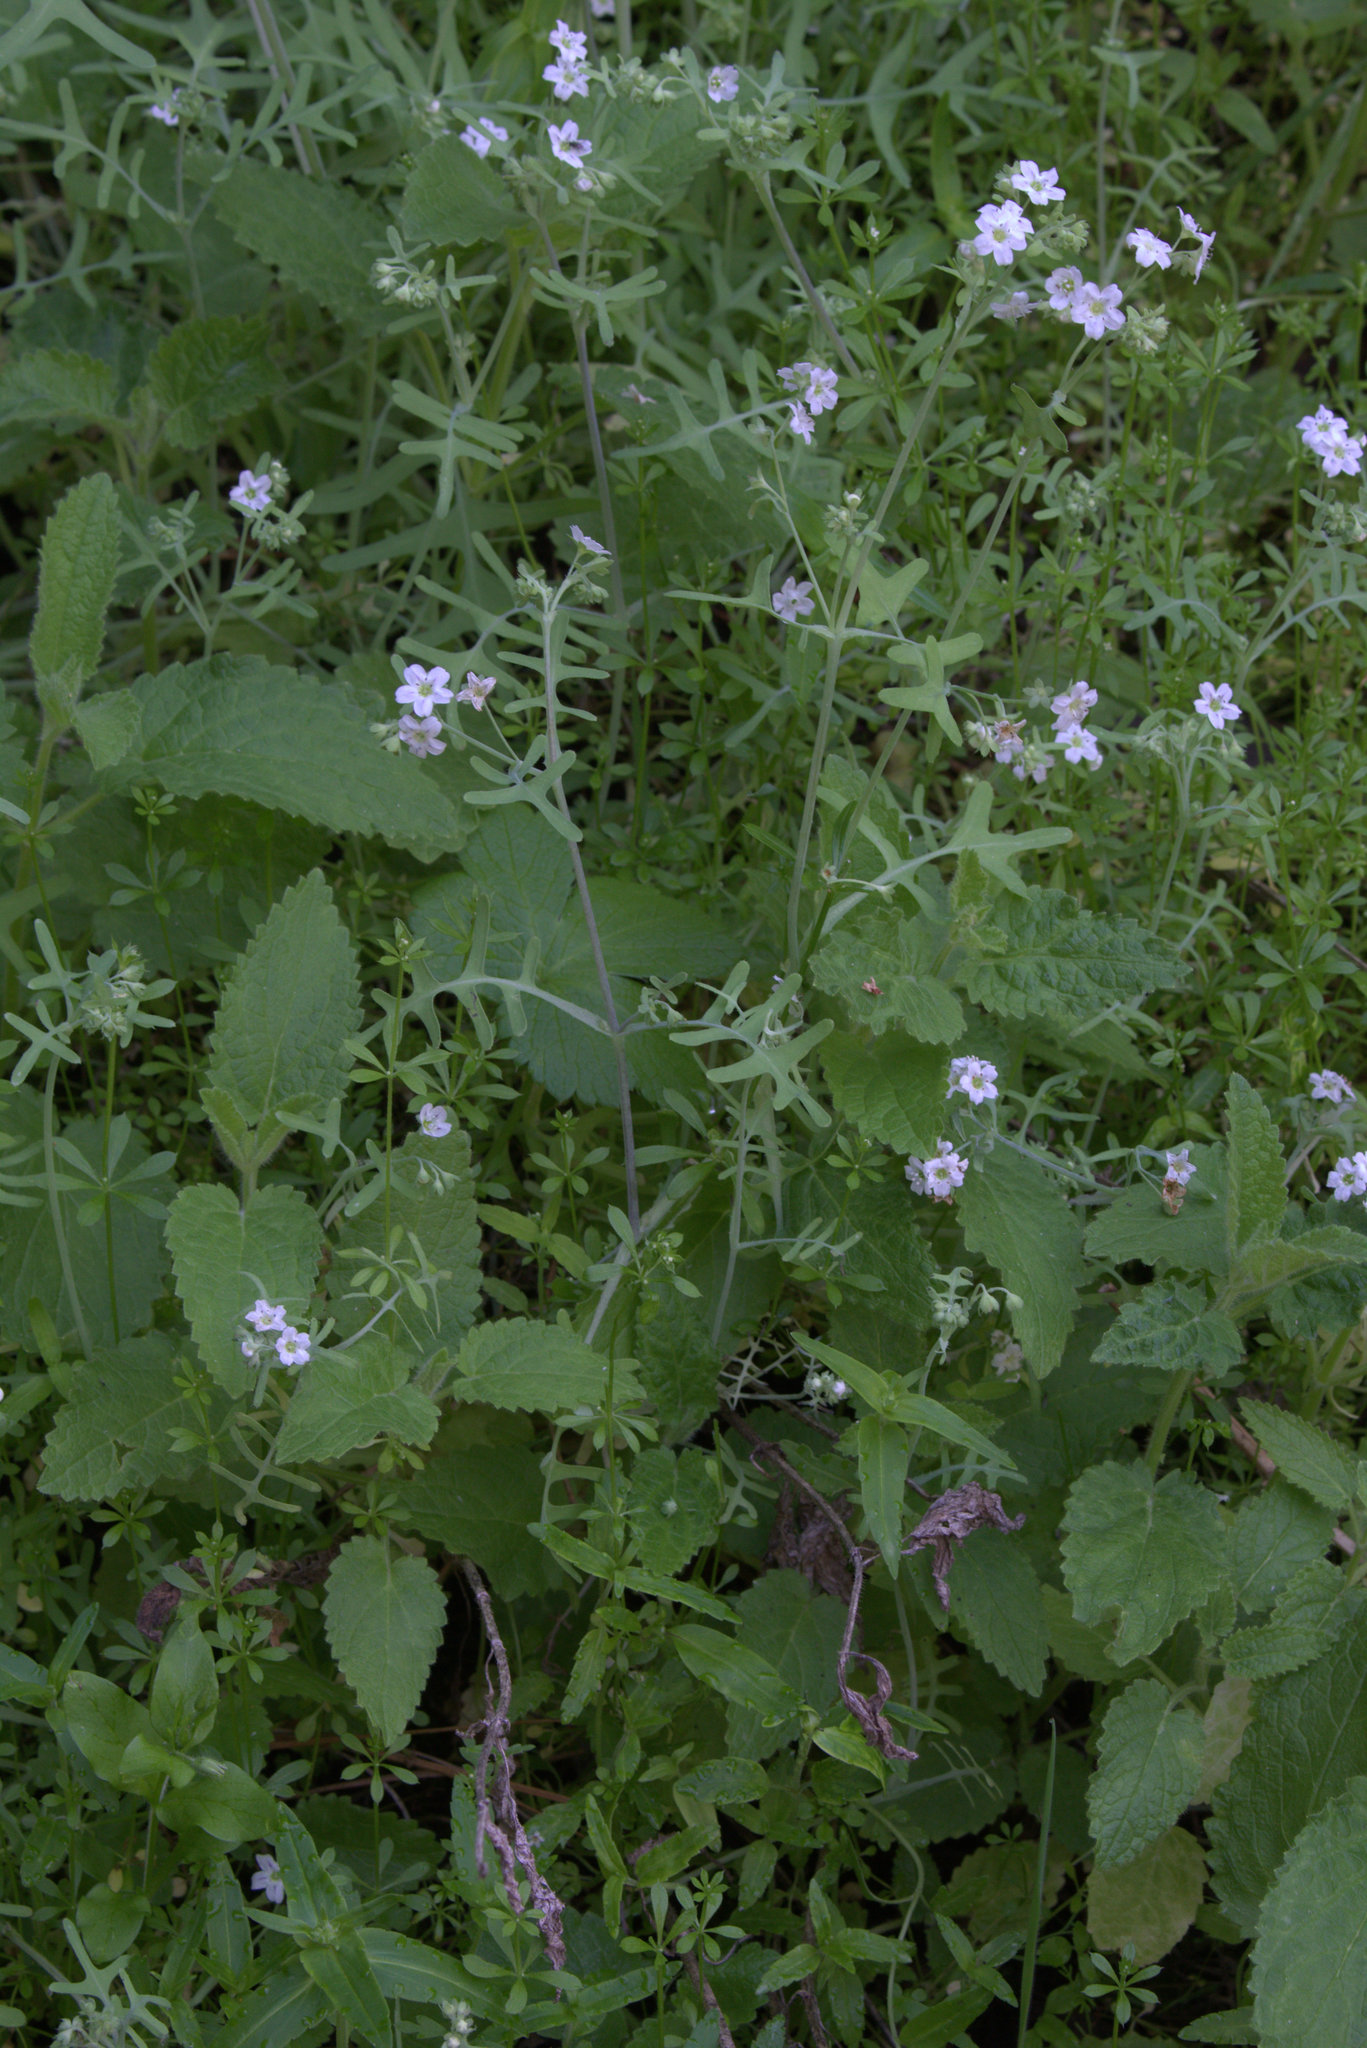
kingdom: Plantae
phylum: Tracheophyta
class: Magnoliopsida
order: Boraginales
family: Hydrophyllaceae
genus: Pholistoma
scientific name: Pholistoma membranaceum
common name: White fiesta-flower
